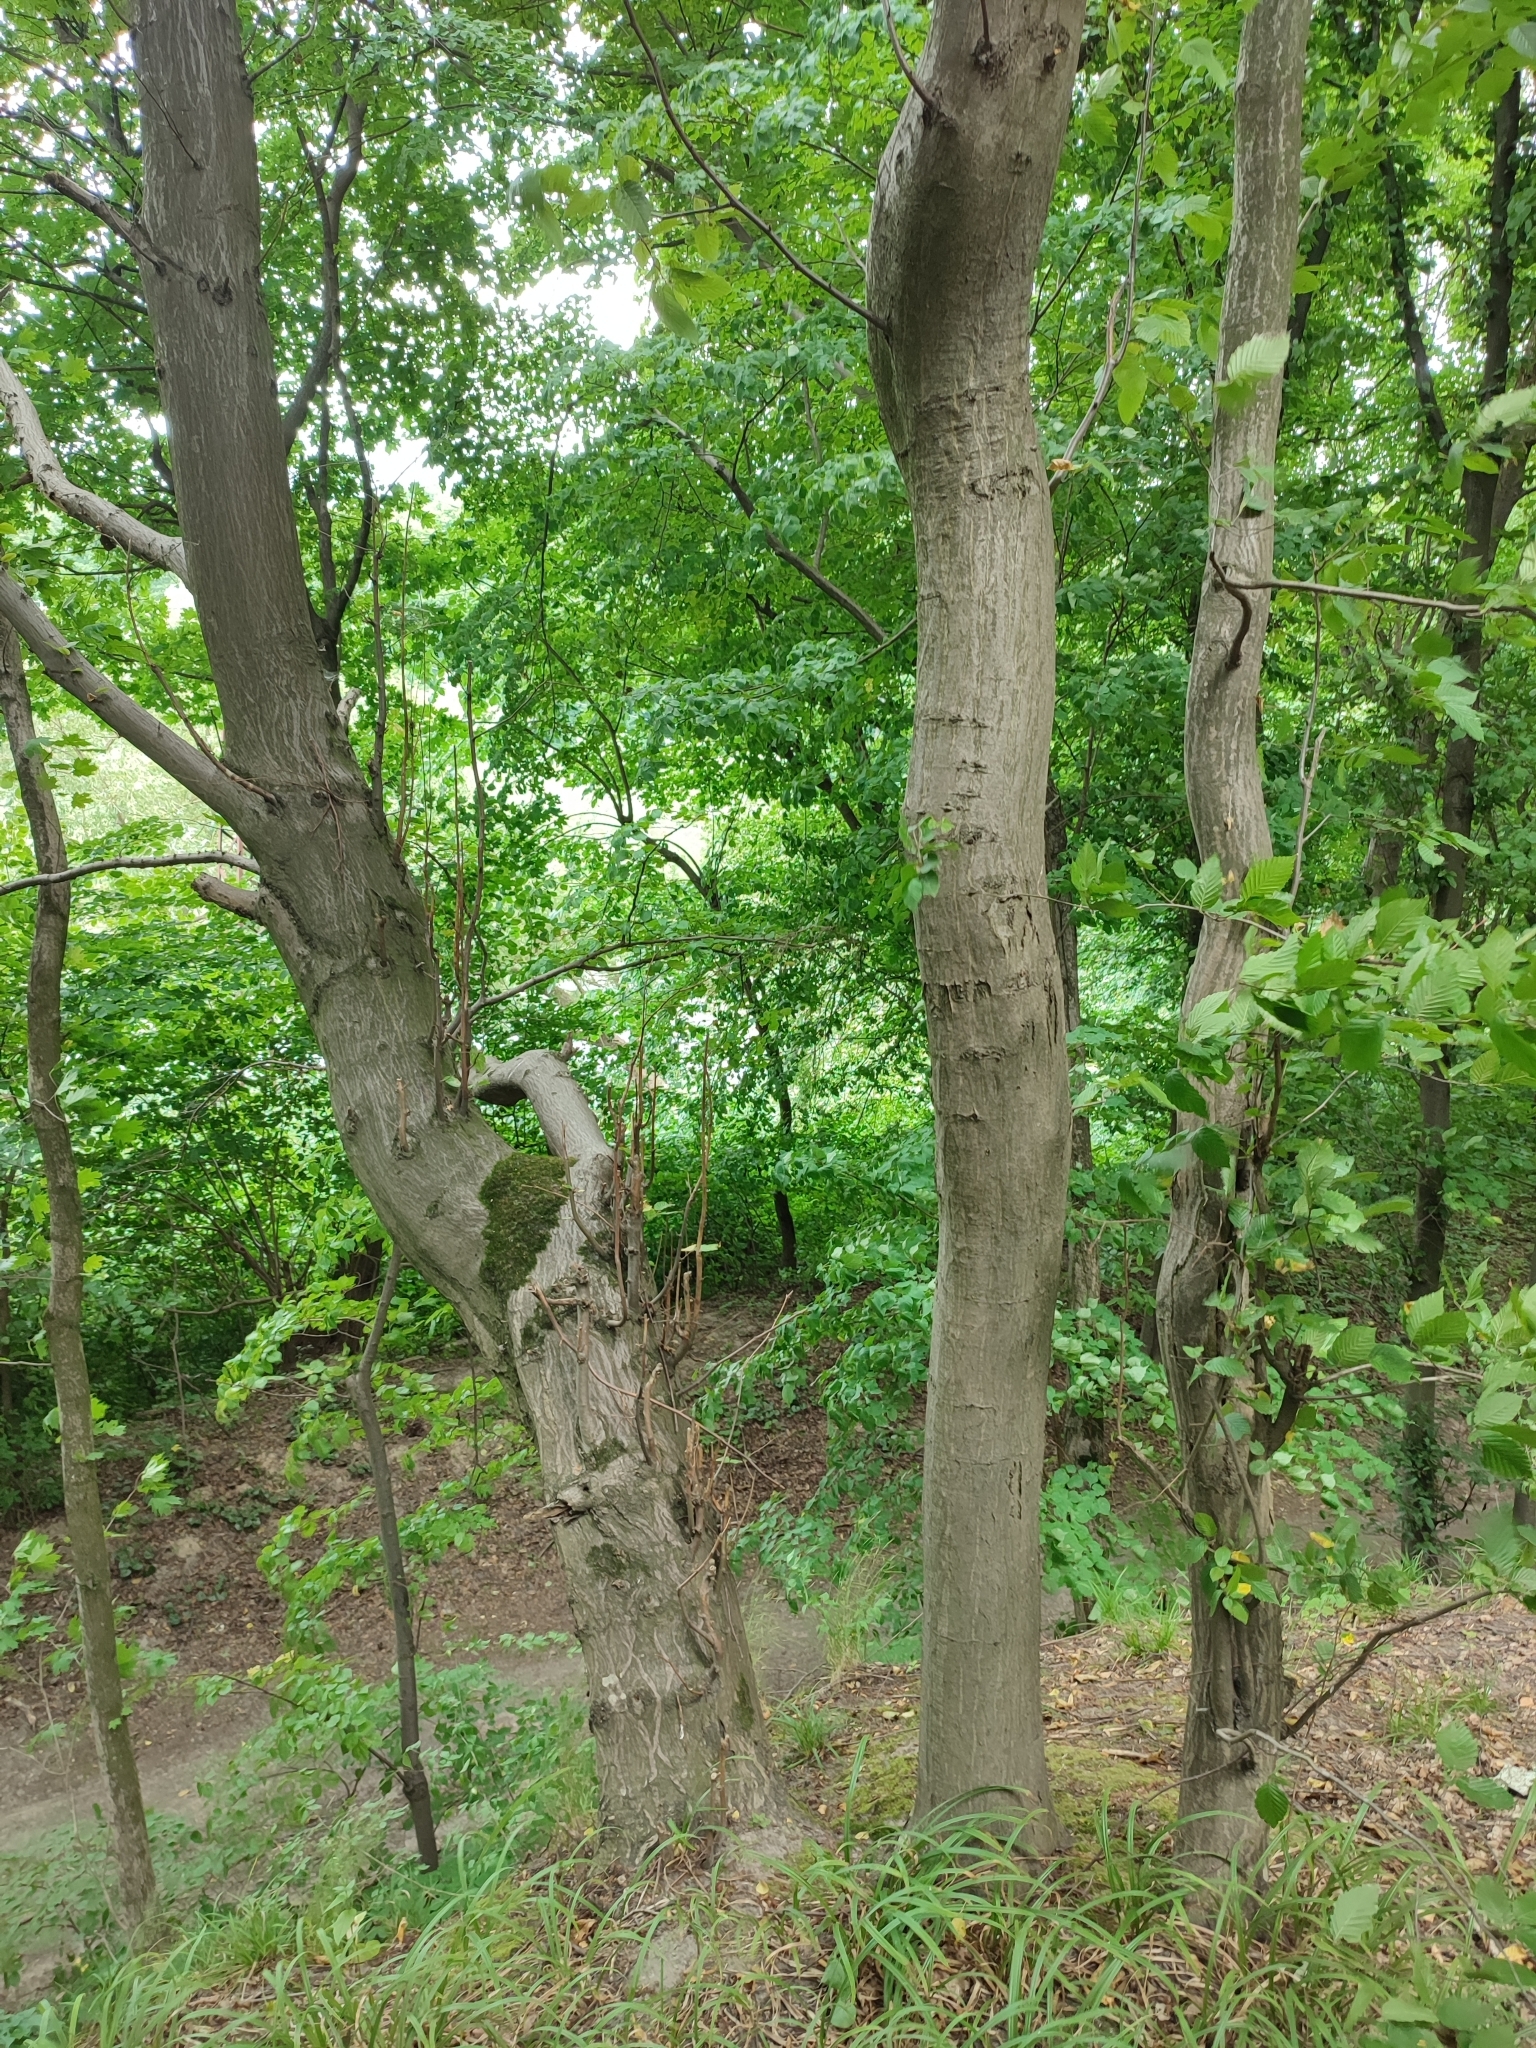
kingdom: Plantae
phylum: Tracheophyta
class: Magnoliopsida
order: Fagales
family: Betulaceae
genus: Carpinus
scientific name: Carpinus betulus
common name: Hornbeam
